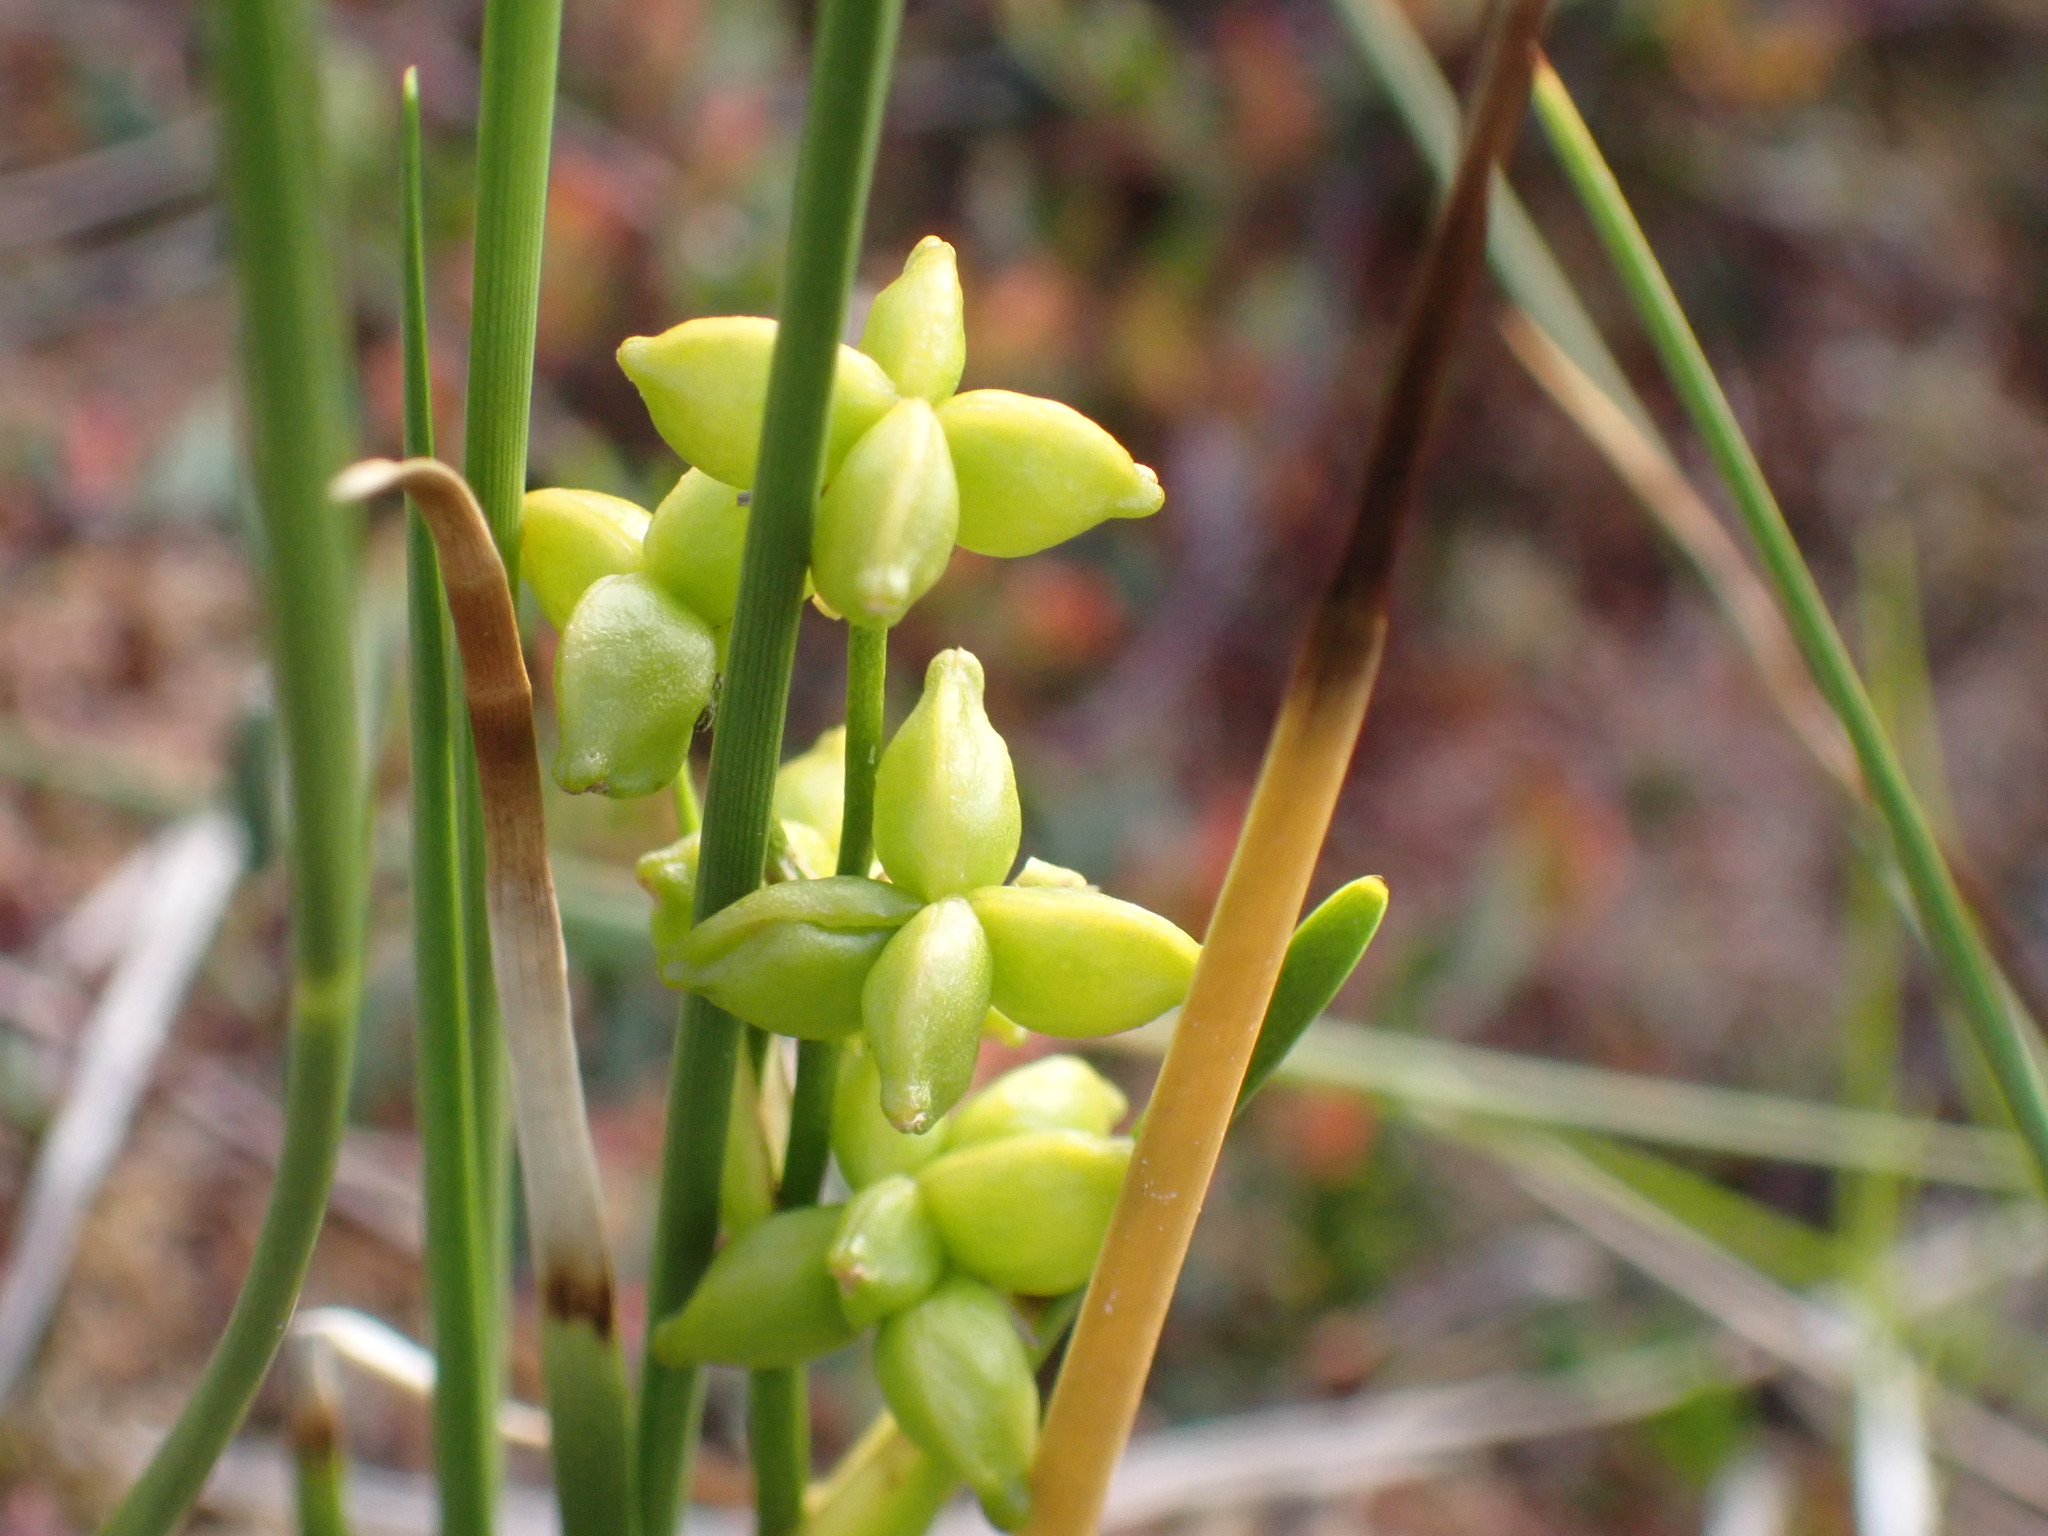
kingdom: Plantae
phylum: Tracheophyta
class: Liliopsida
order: Alismatales
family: Scheuchzeriaceae
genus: Scheuchzeria
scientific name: Scheuchzeria palustris
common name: Rannoch-rush
